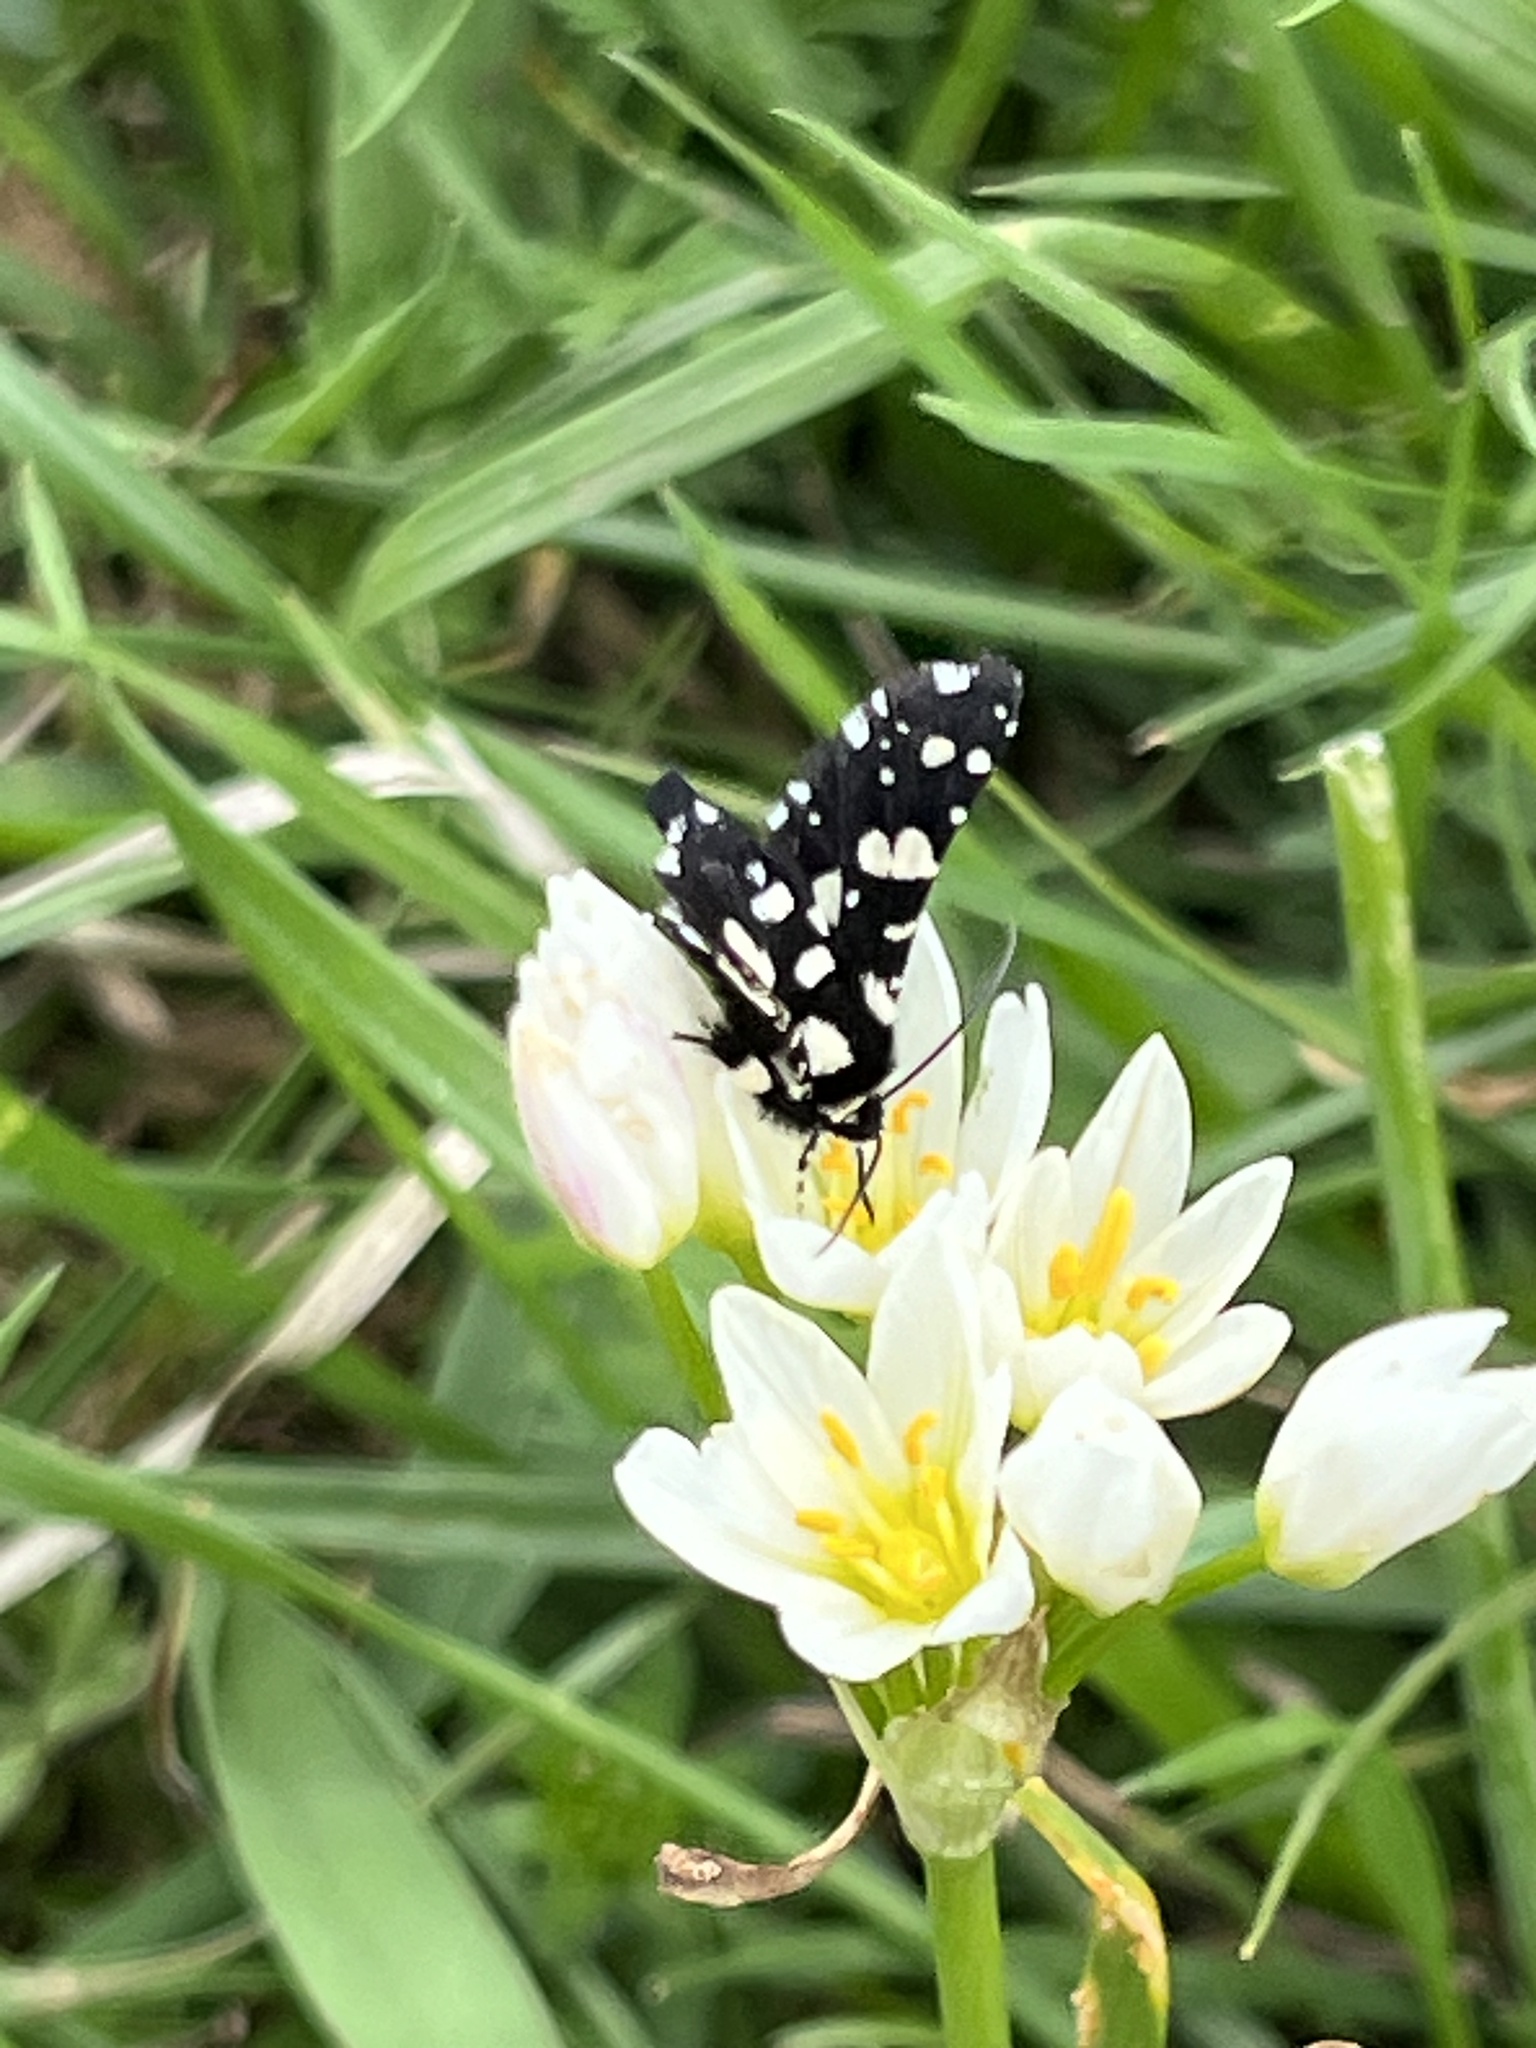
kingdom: Animalia
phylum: Arthropoda
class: Insecta
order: Lepidoptera
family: Thyrididae
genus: Pseudothyris
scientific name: Pseudothyris sepulchralis
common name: Mournful thyris moth
